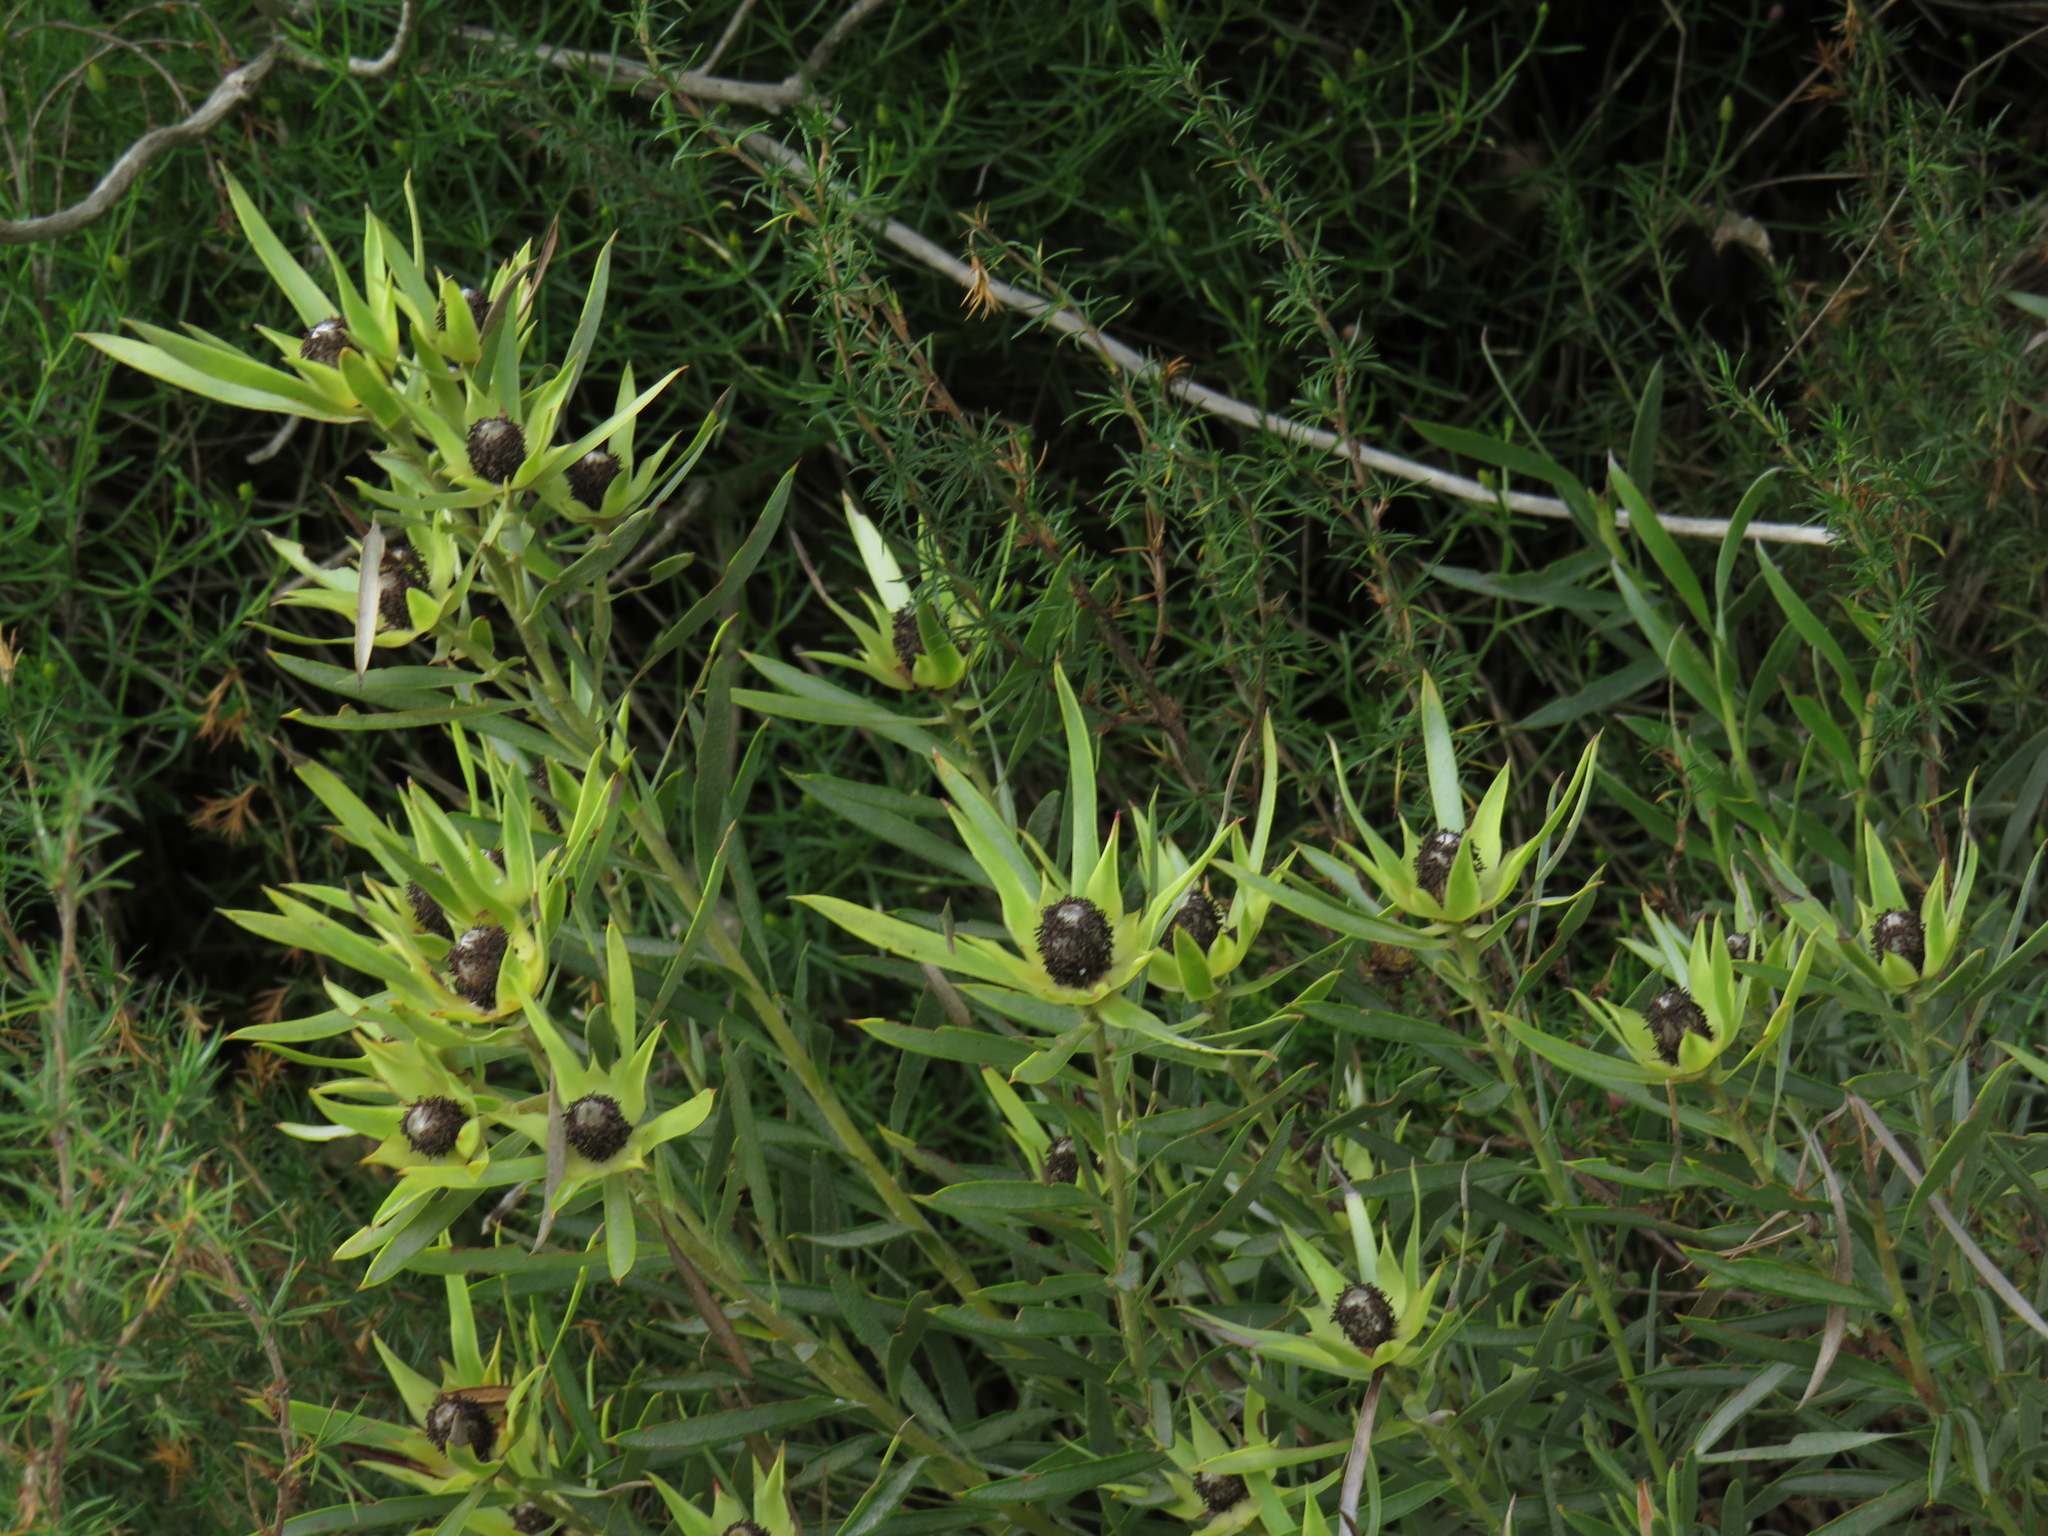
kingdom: Plantae
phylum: Tracheophyta
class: Magnoliopsida
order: Proteales
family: Proteaceae
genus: Leucadendron
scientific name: Leucadendron xanthoconus
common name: Sickle-leaf conebush
